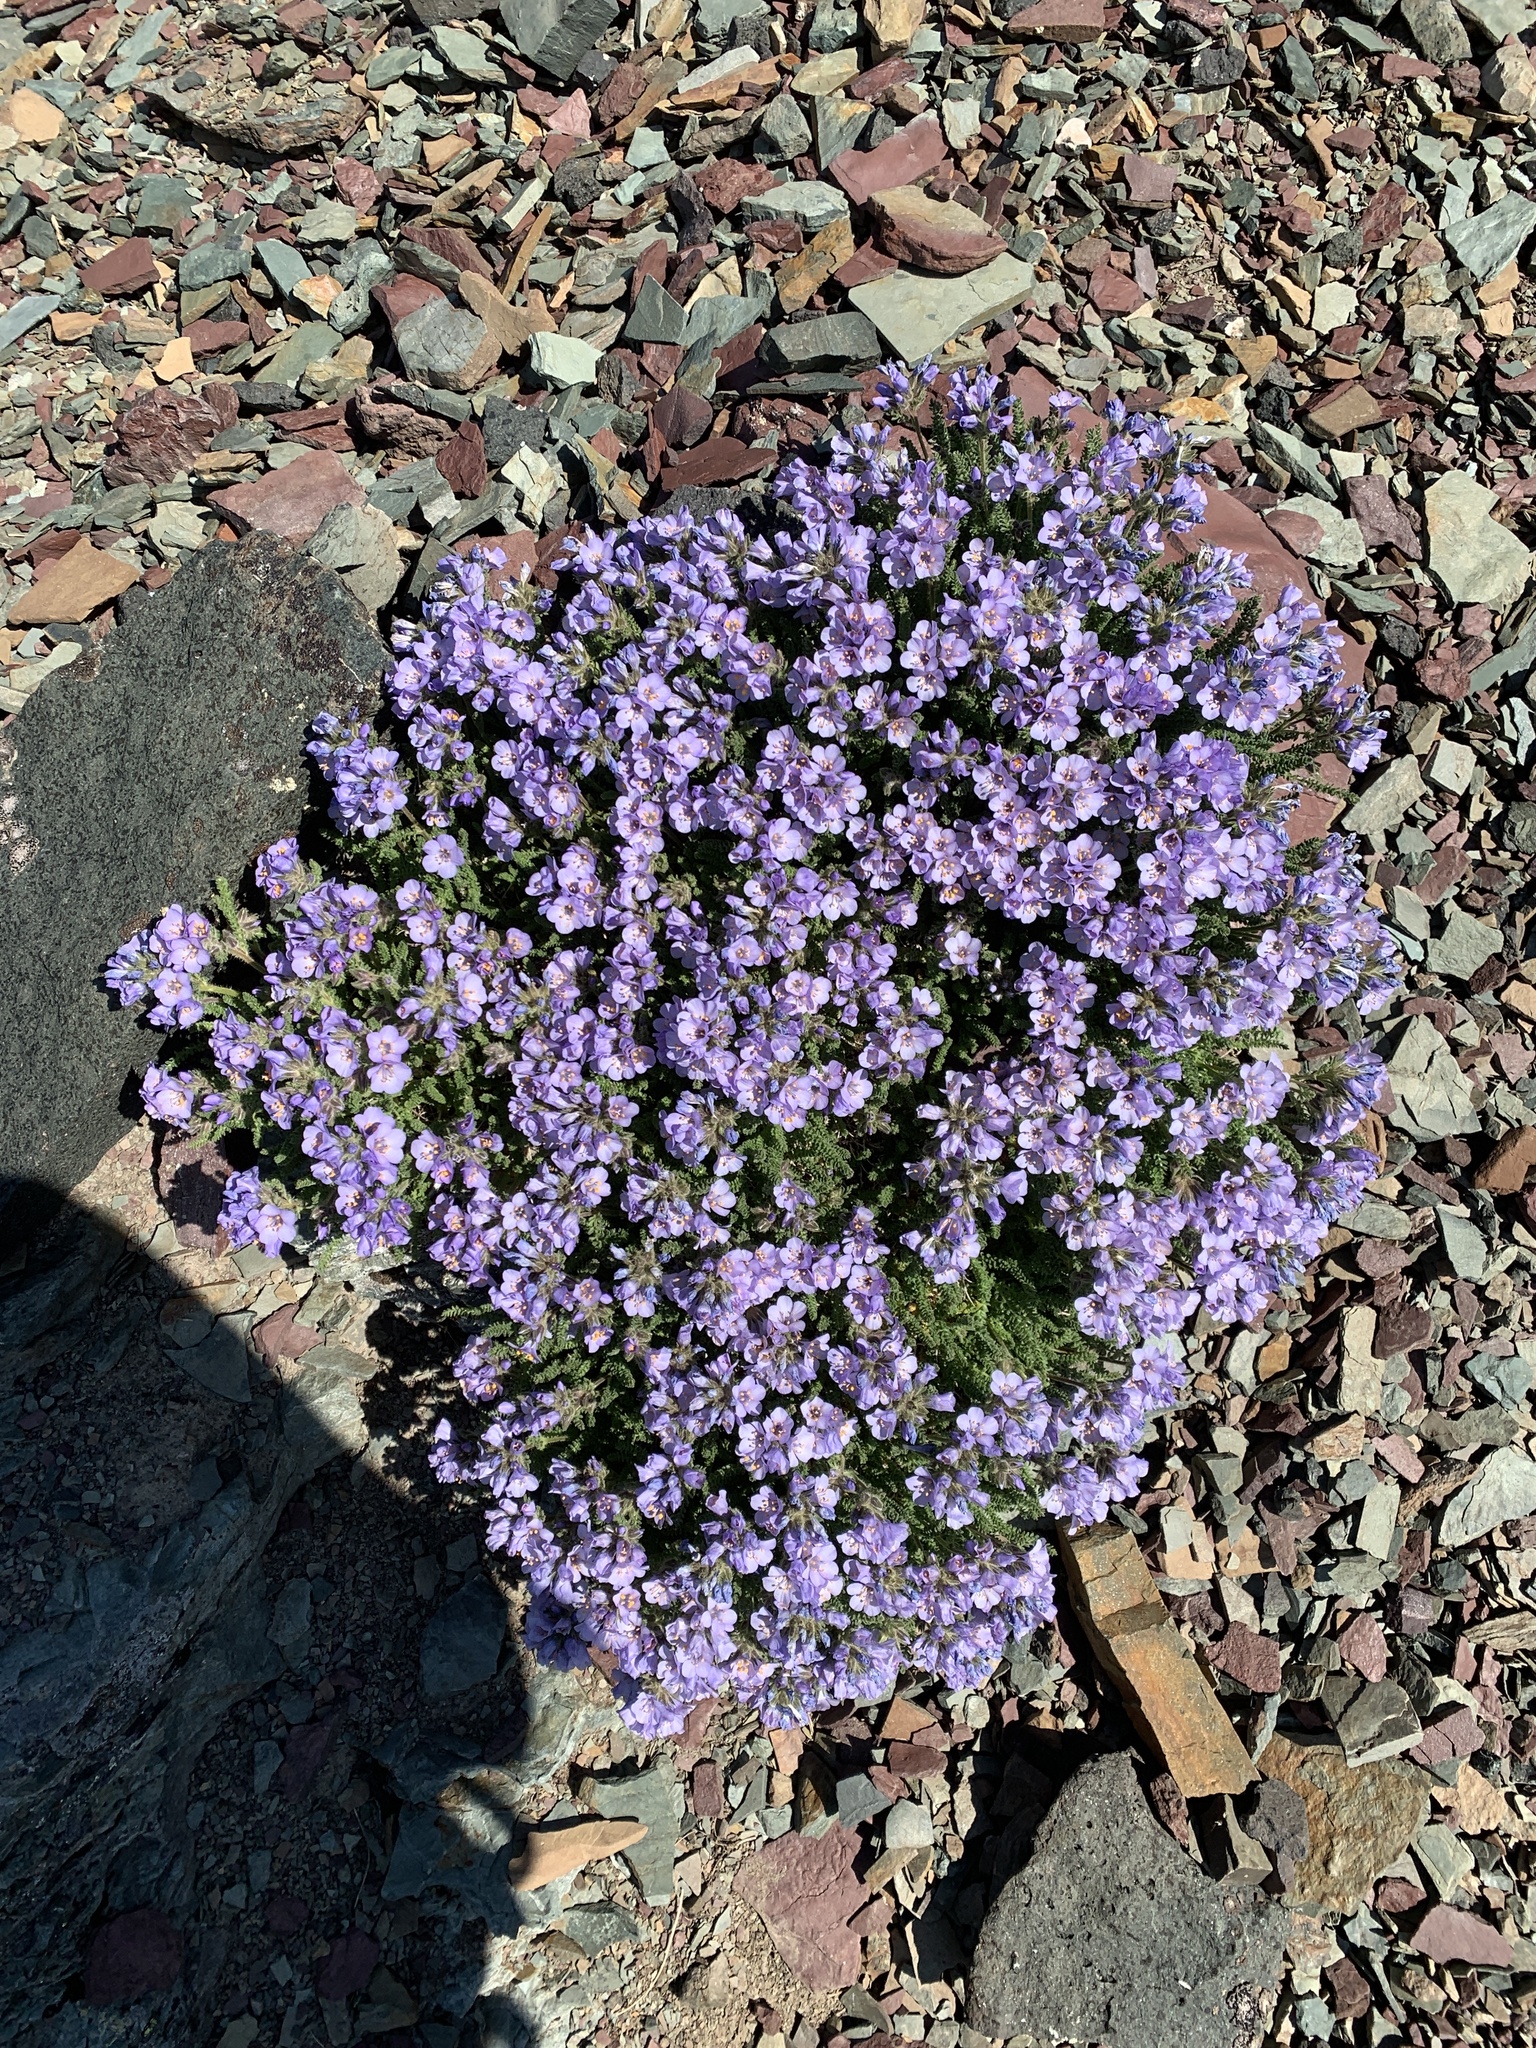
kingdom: Plantae
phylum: Tracheophyta
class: Magnoliopsida
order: Ericales
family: Polemoniaceae
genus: Polemonium
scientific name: Polemonium viscosum
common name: Skunk jacob's-ladder
